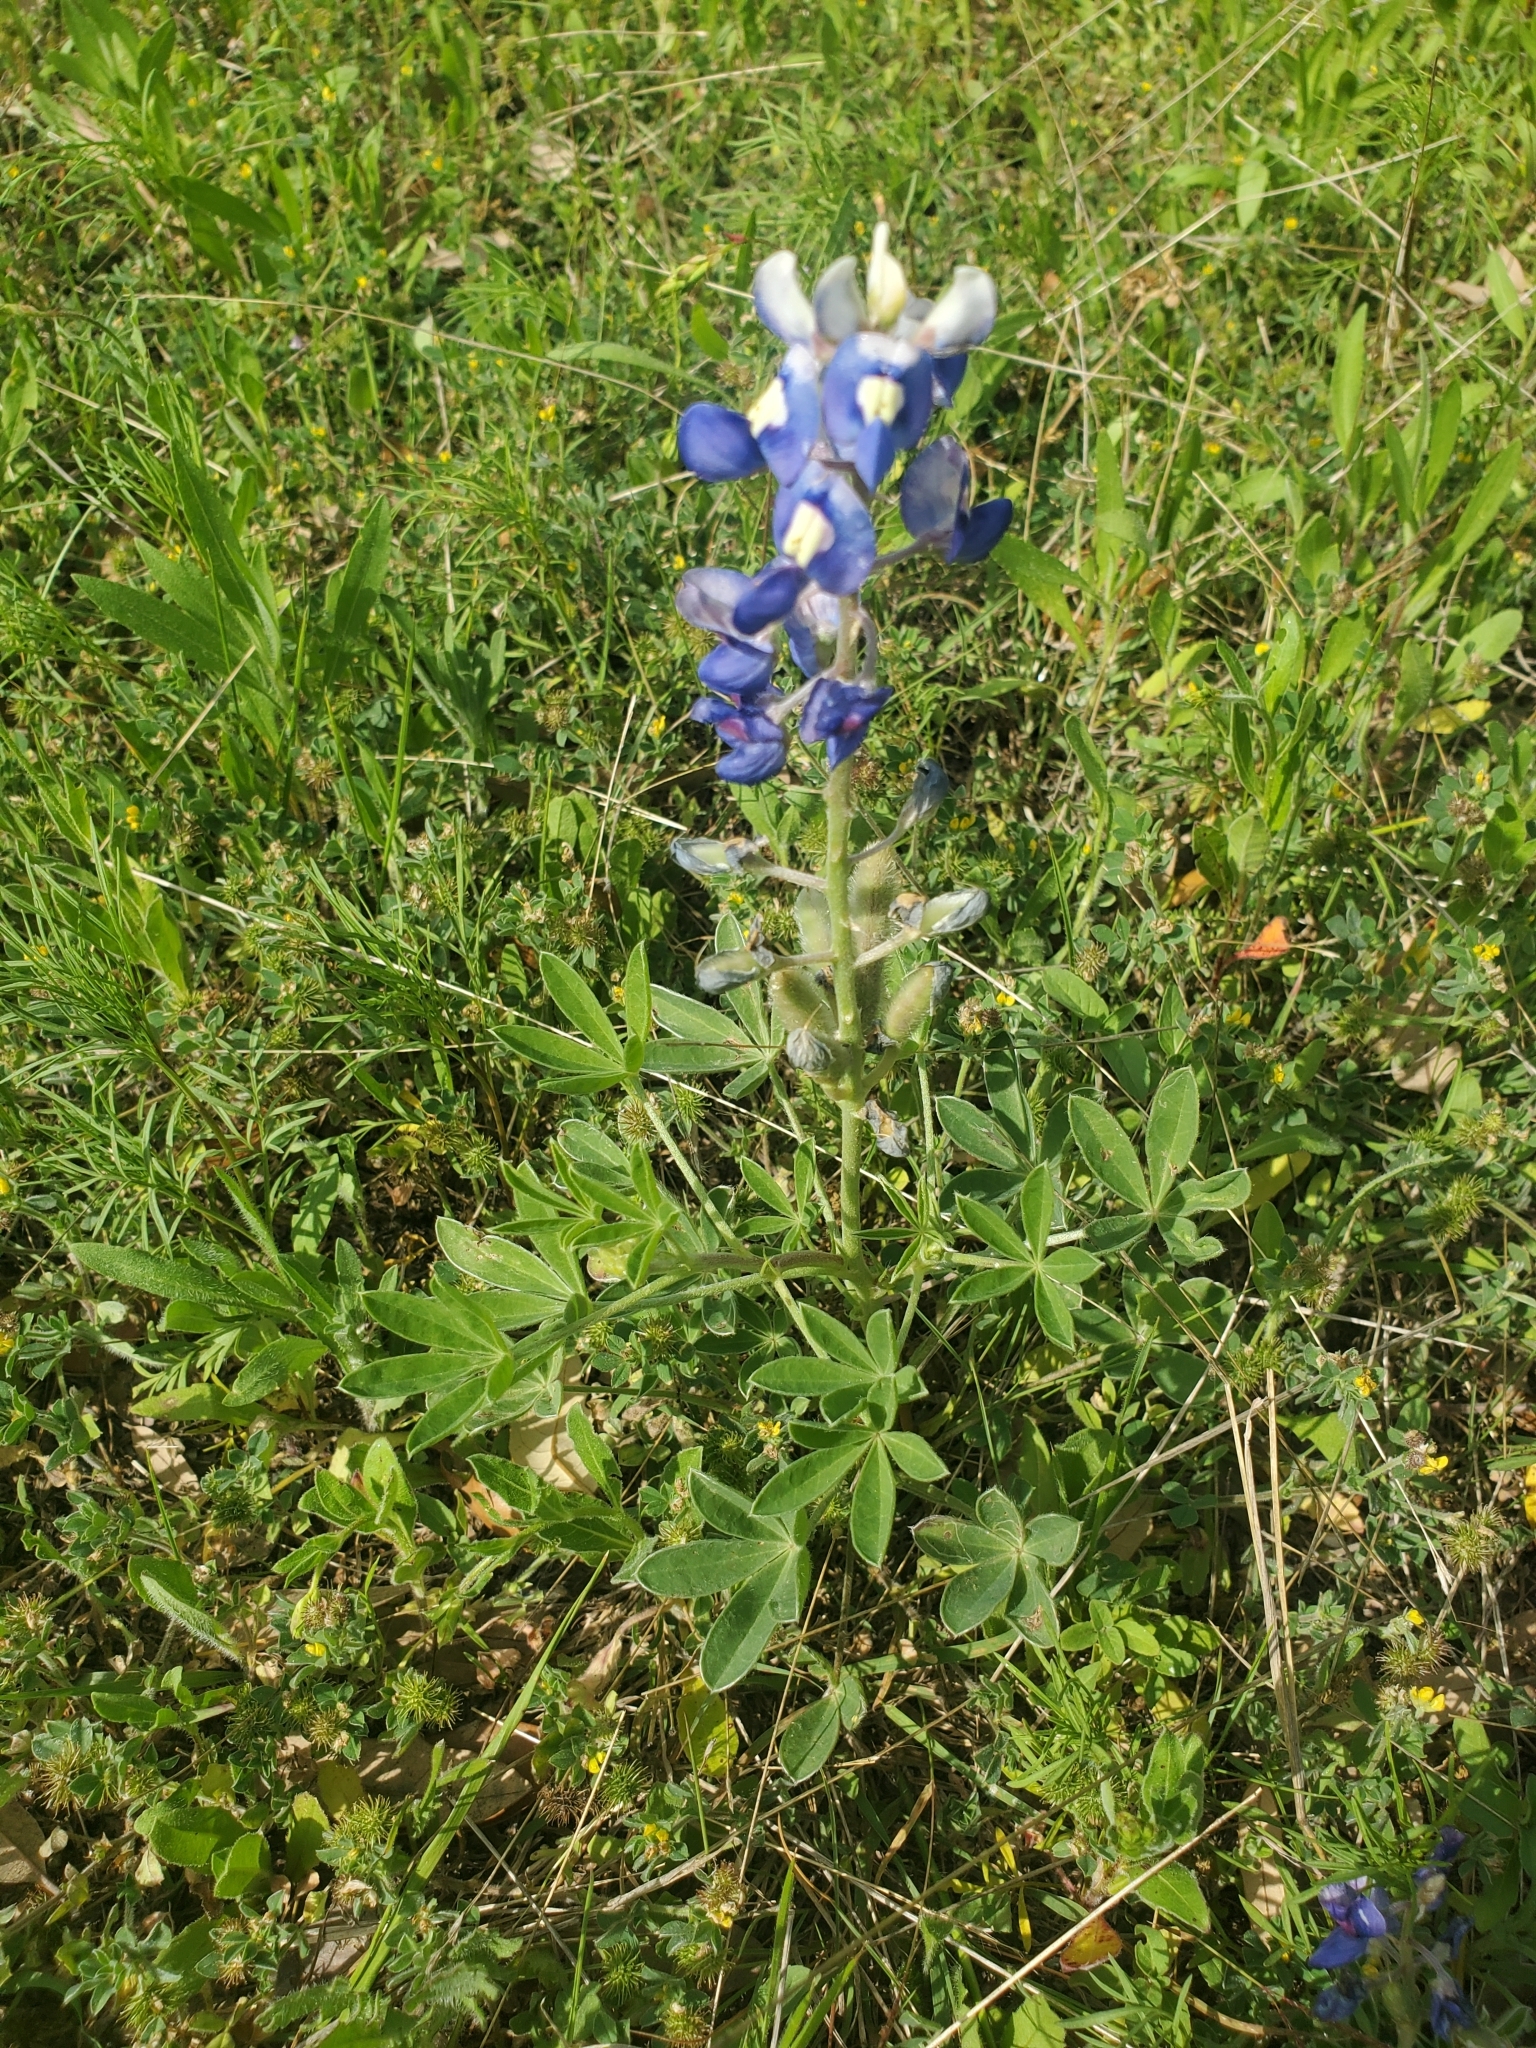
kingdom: Plantae
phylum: Tracheophyta
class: Magnoliopsida
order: Fabales
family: Fabaceae
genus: Lupinus
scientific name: Lupinus texensis
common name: Texas bluebonnet
